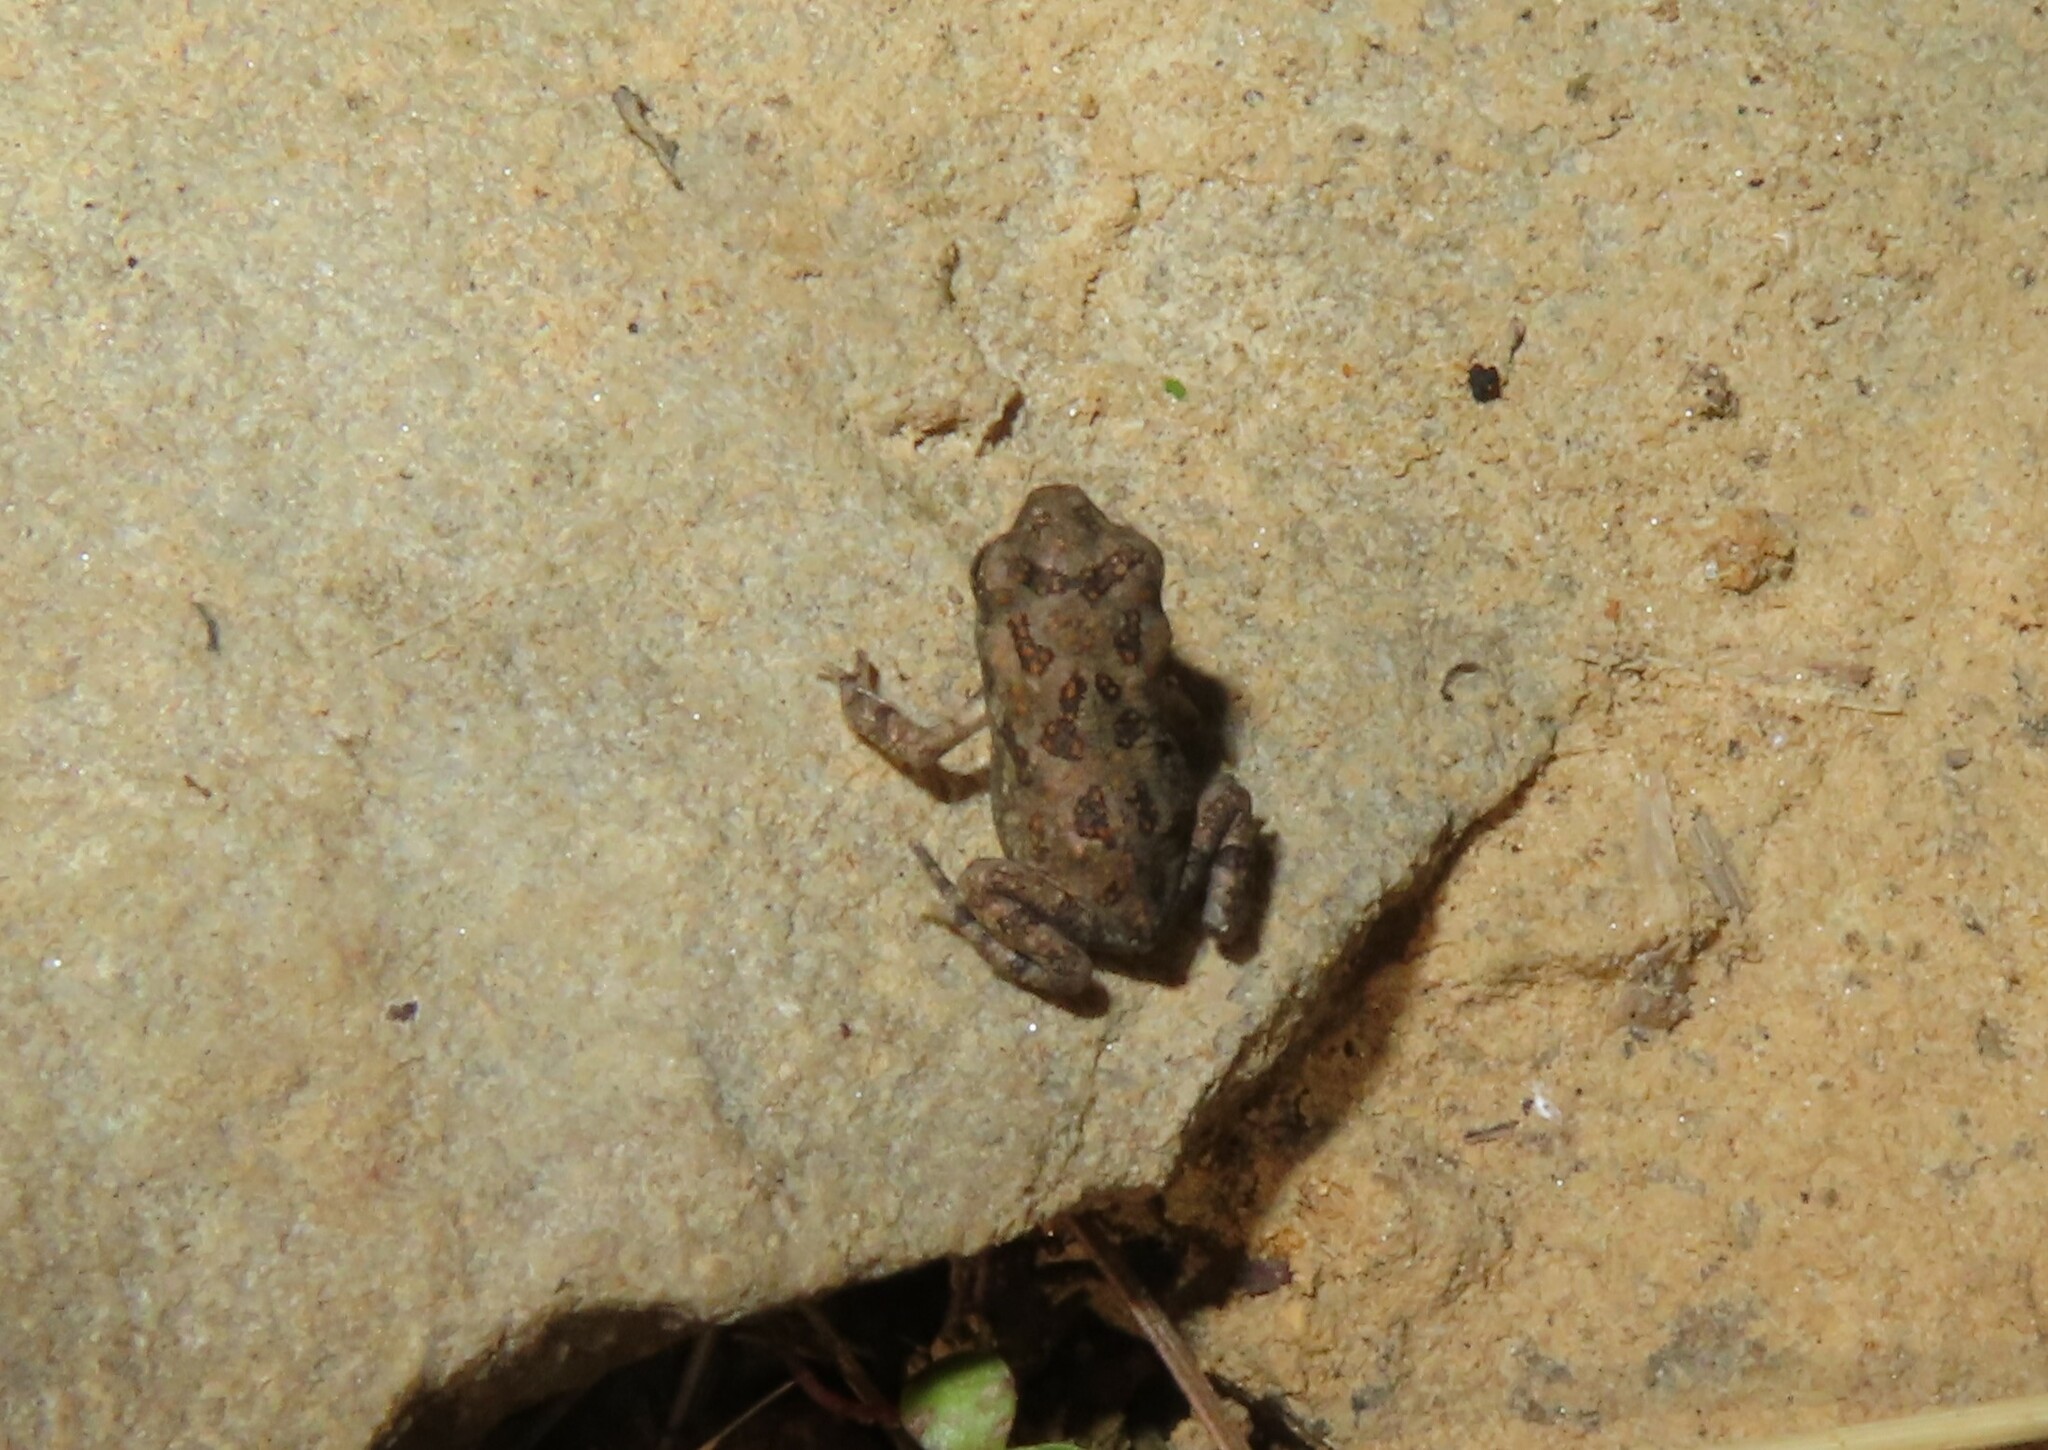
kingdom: Animalia
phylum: Chordata
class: Amphibia
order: Anura
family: Bufonidae
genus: Anaxyrus
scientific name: Anaxyrus fowleri
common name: Fowler's toad
